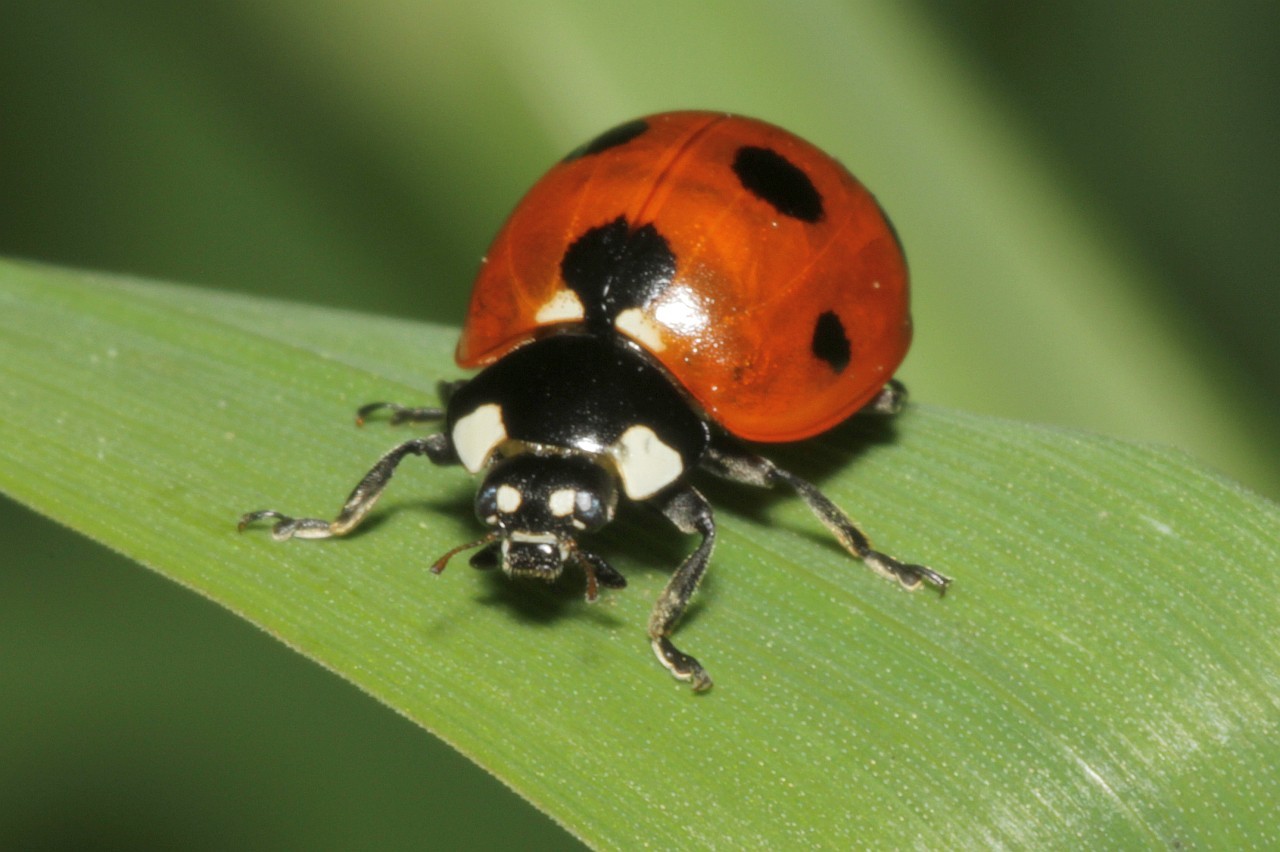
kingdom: Animalia
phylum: Arthropoda
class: Insecta
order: Coleoptera
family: Coccinellidae
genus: Coccinella
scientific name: Coccinella septempunctata
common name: Sevenspotted lady beetle
